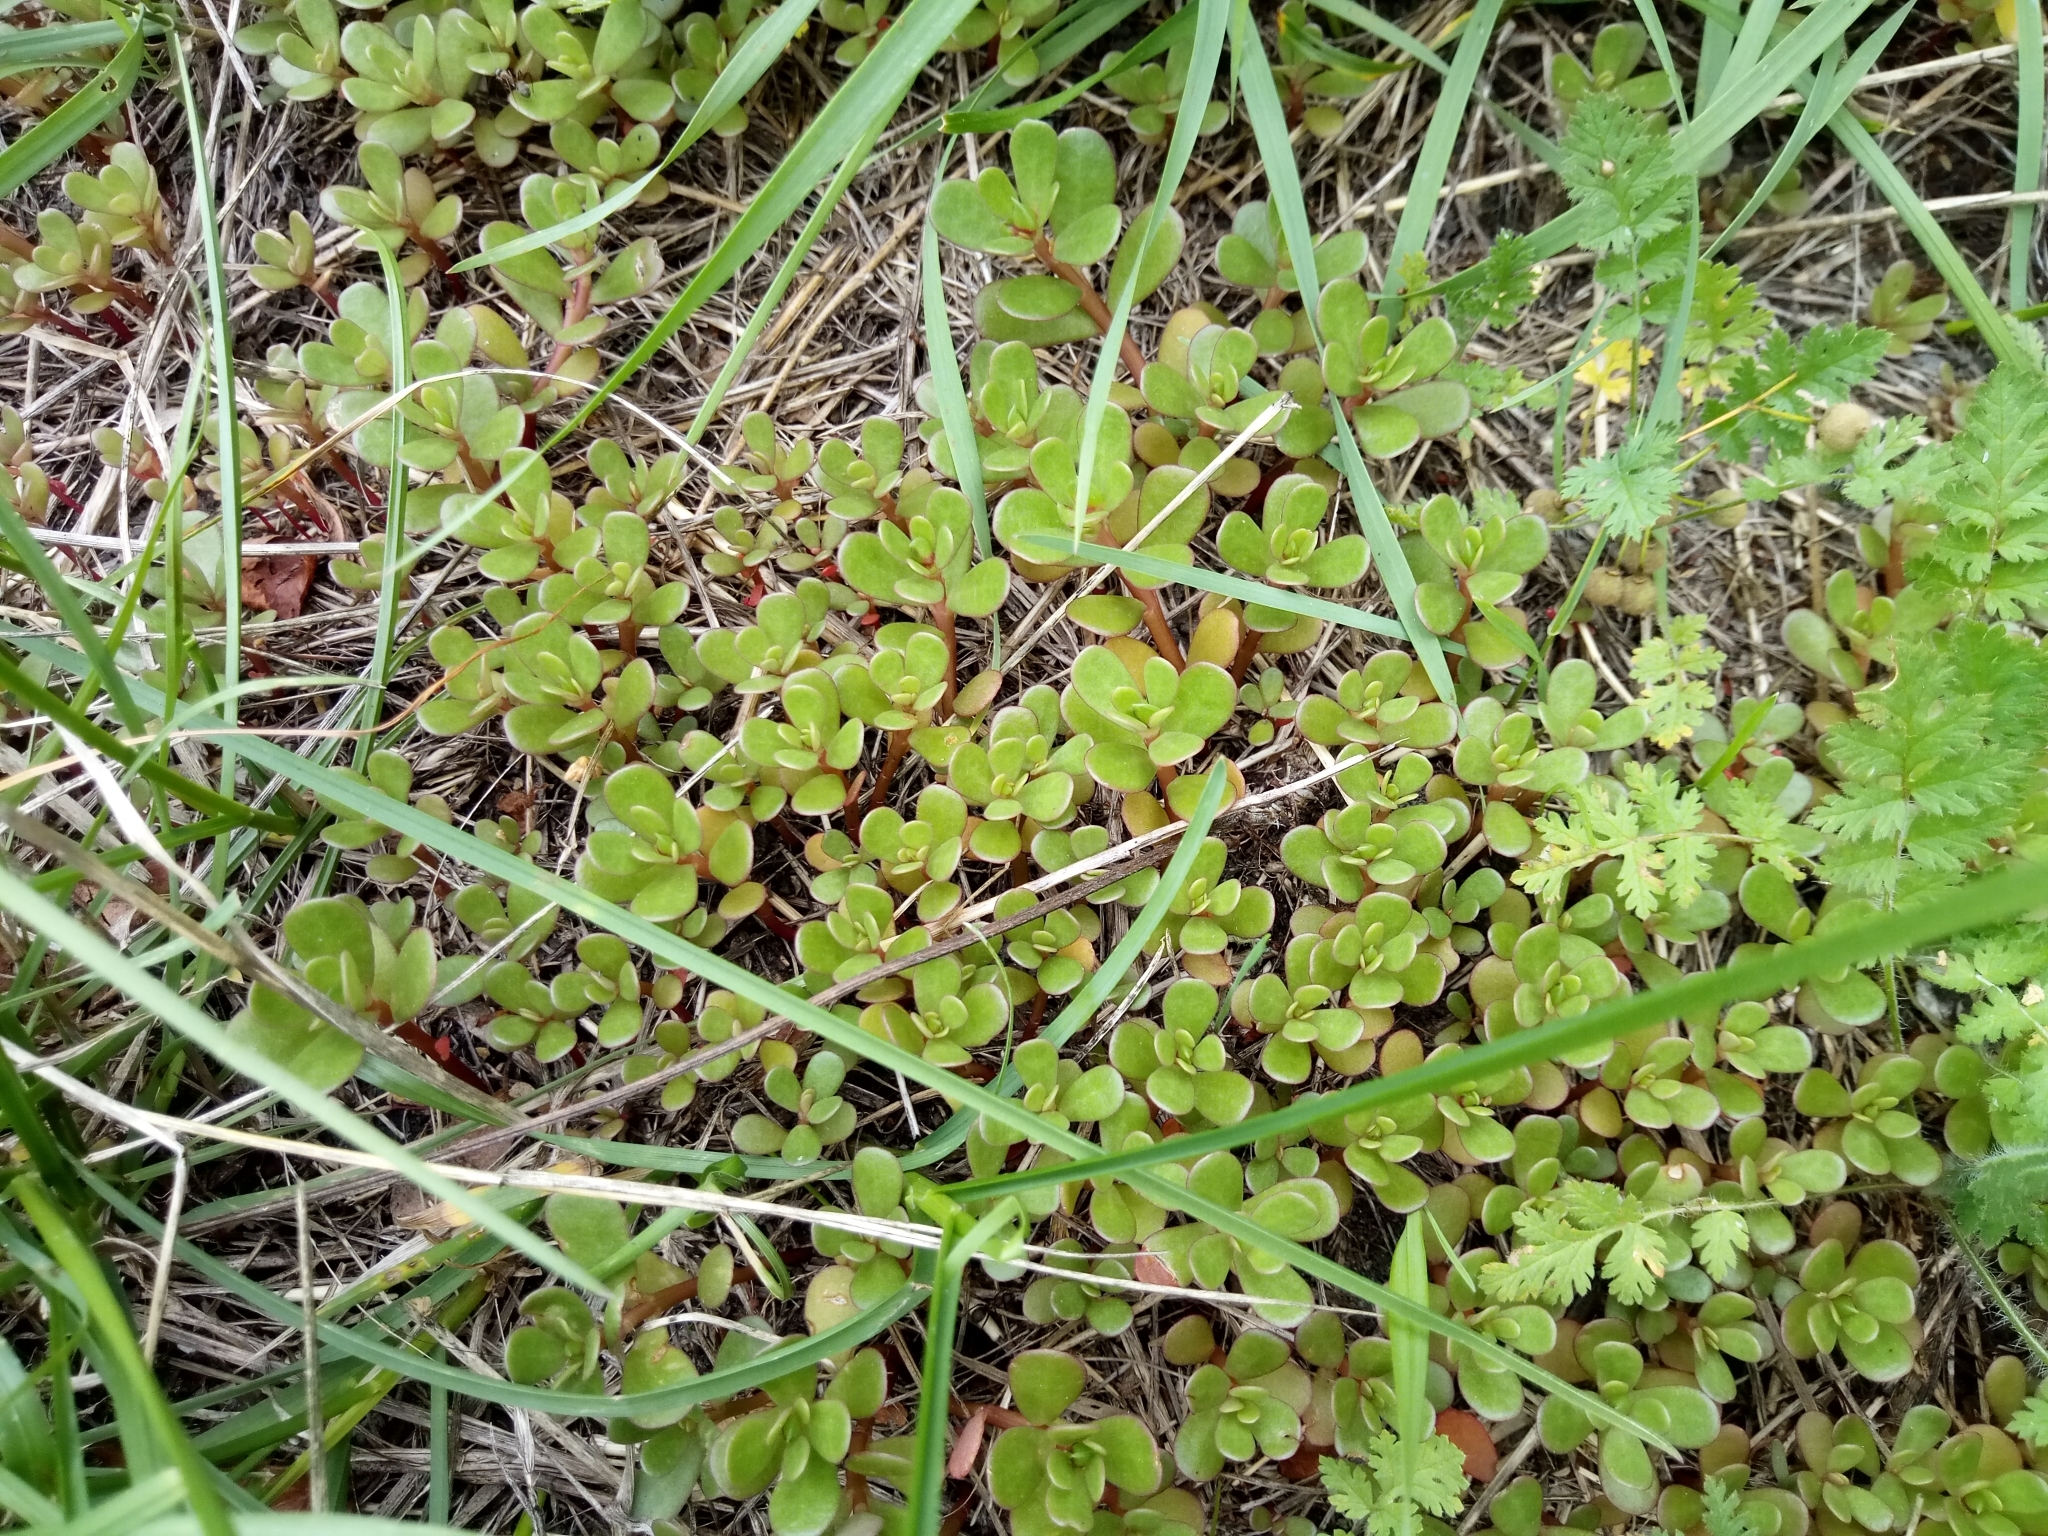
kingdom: Plantae
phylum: Tracheophyta
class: Magnoliopsida
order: Caryophyllales
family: Portulacaceae
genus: Portulaca
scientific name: Portulaca oleracea
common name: Common purslane
